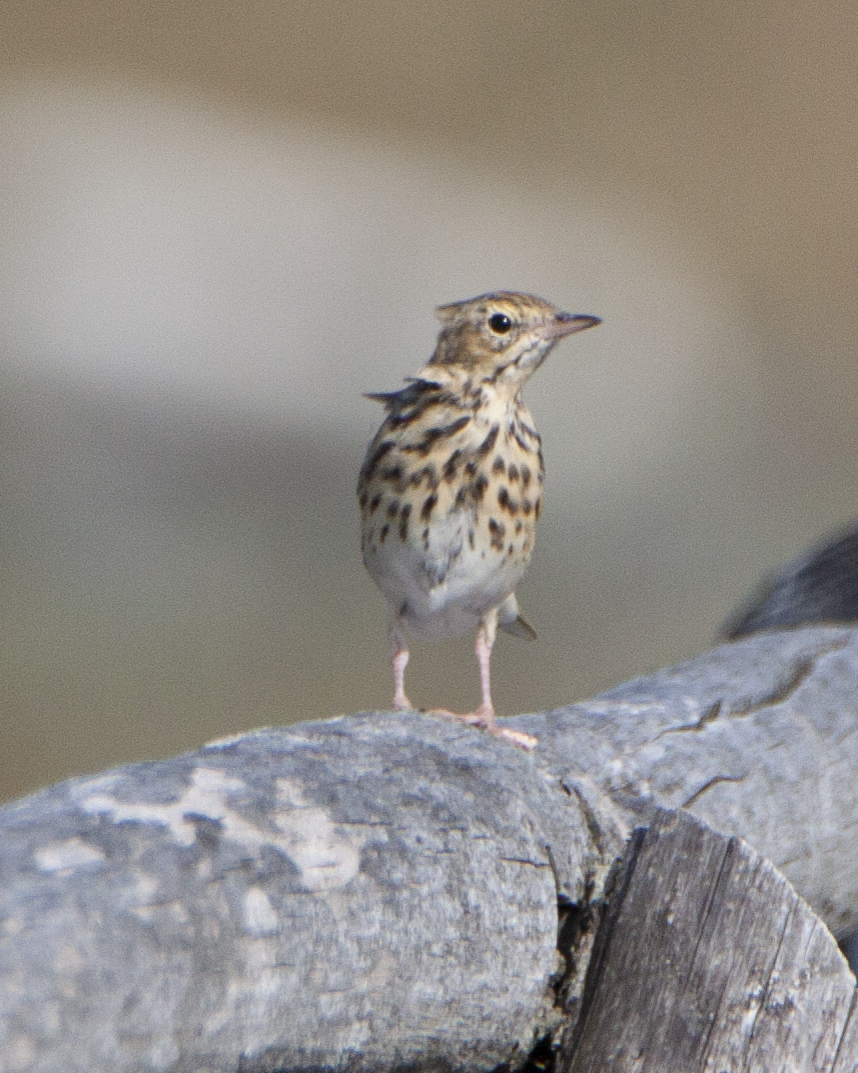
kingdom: Animalia
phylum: Chordata
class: Aves
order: Passeriformes
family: Motacillidae
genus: Anthus
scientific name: Anthus trivialis
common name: Tree pipit
